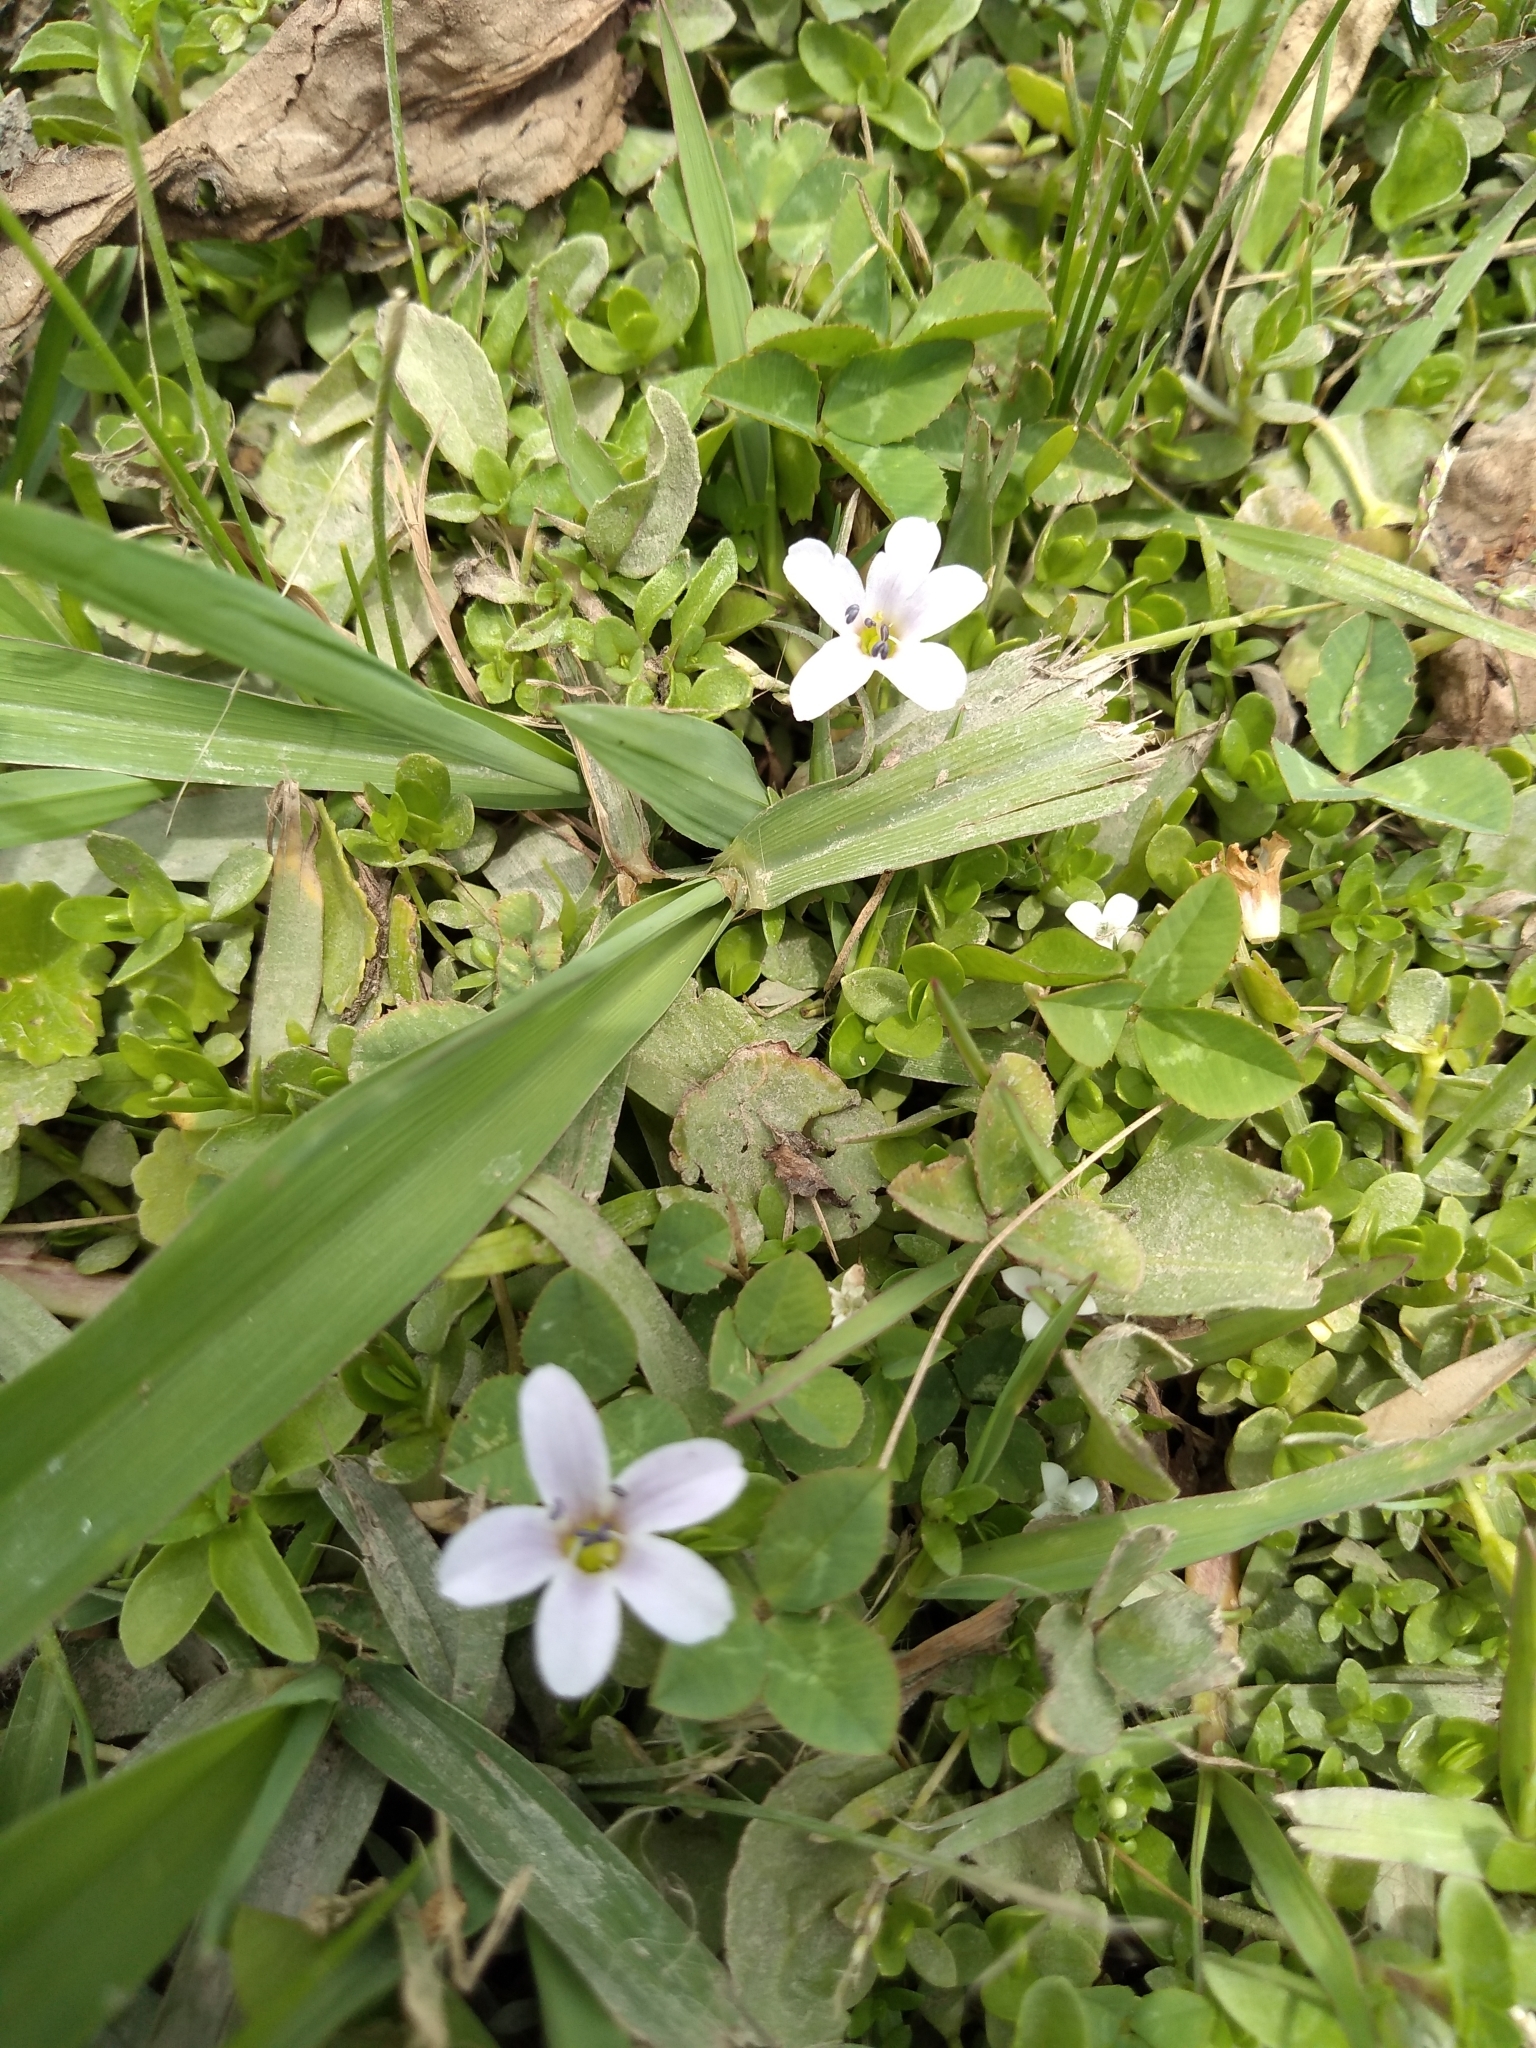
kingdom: Plantae
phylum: Tracheophyta
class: Magnoliopsida
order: Lamiales
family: Plantaginaceae
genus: Bacopa
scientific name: Bacopa monnieri
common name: Indian-pennywort
